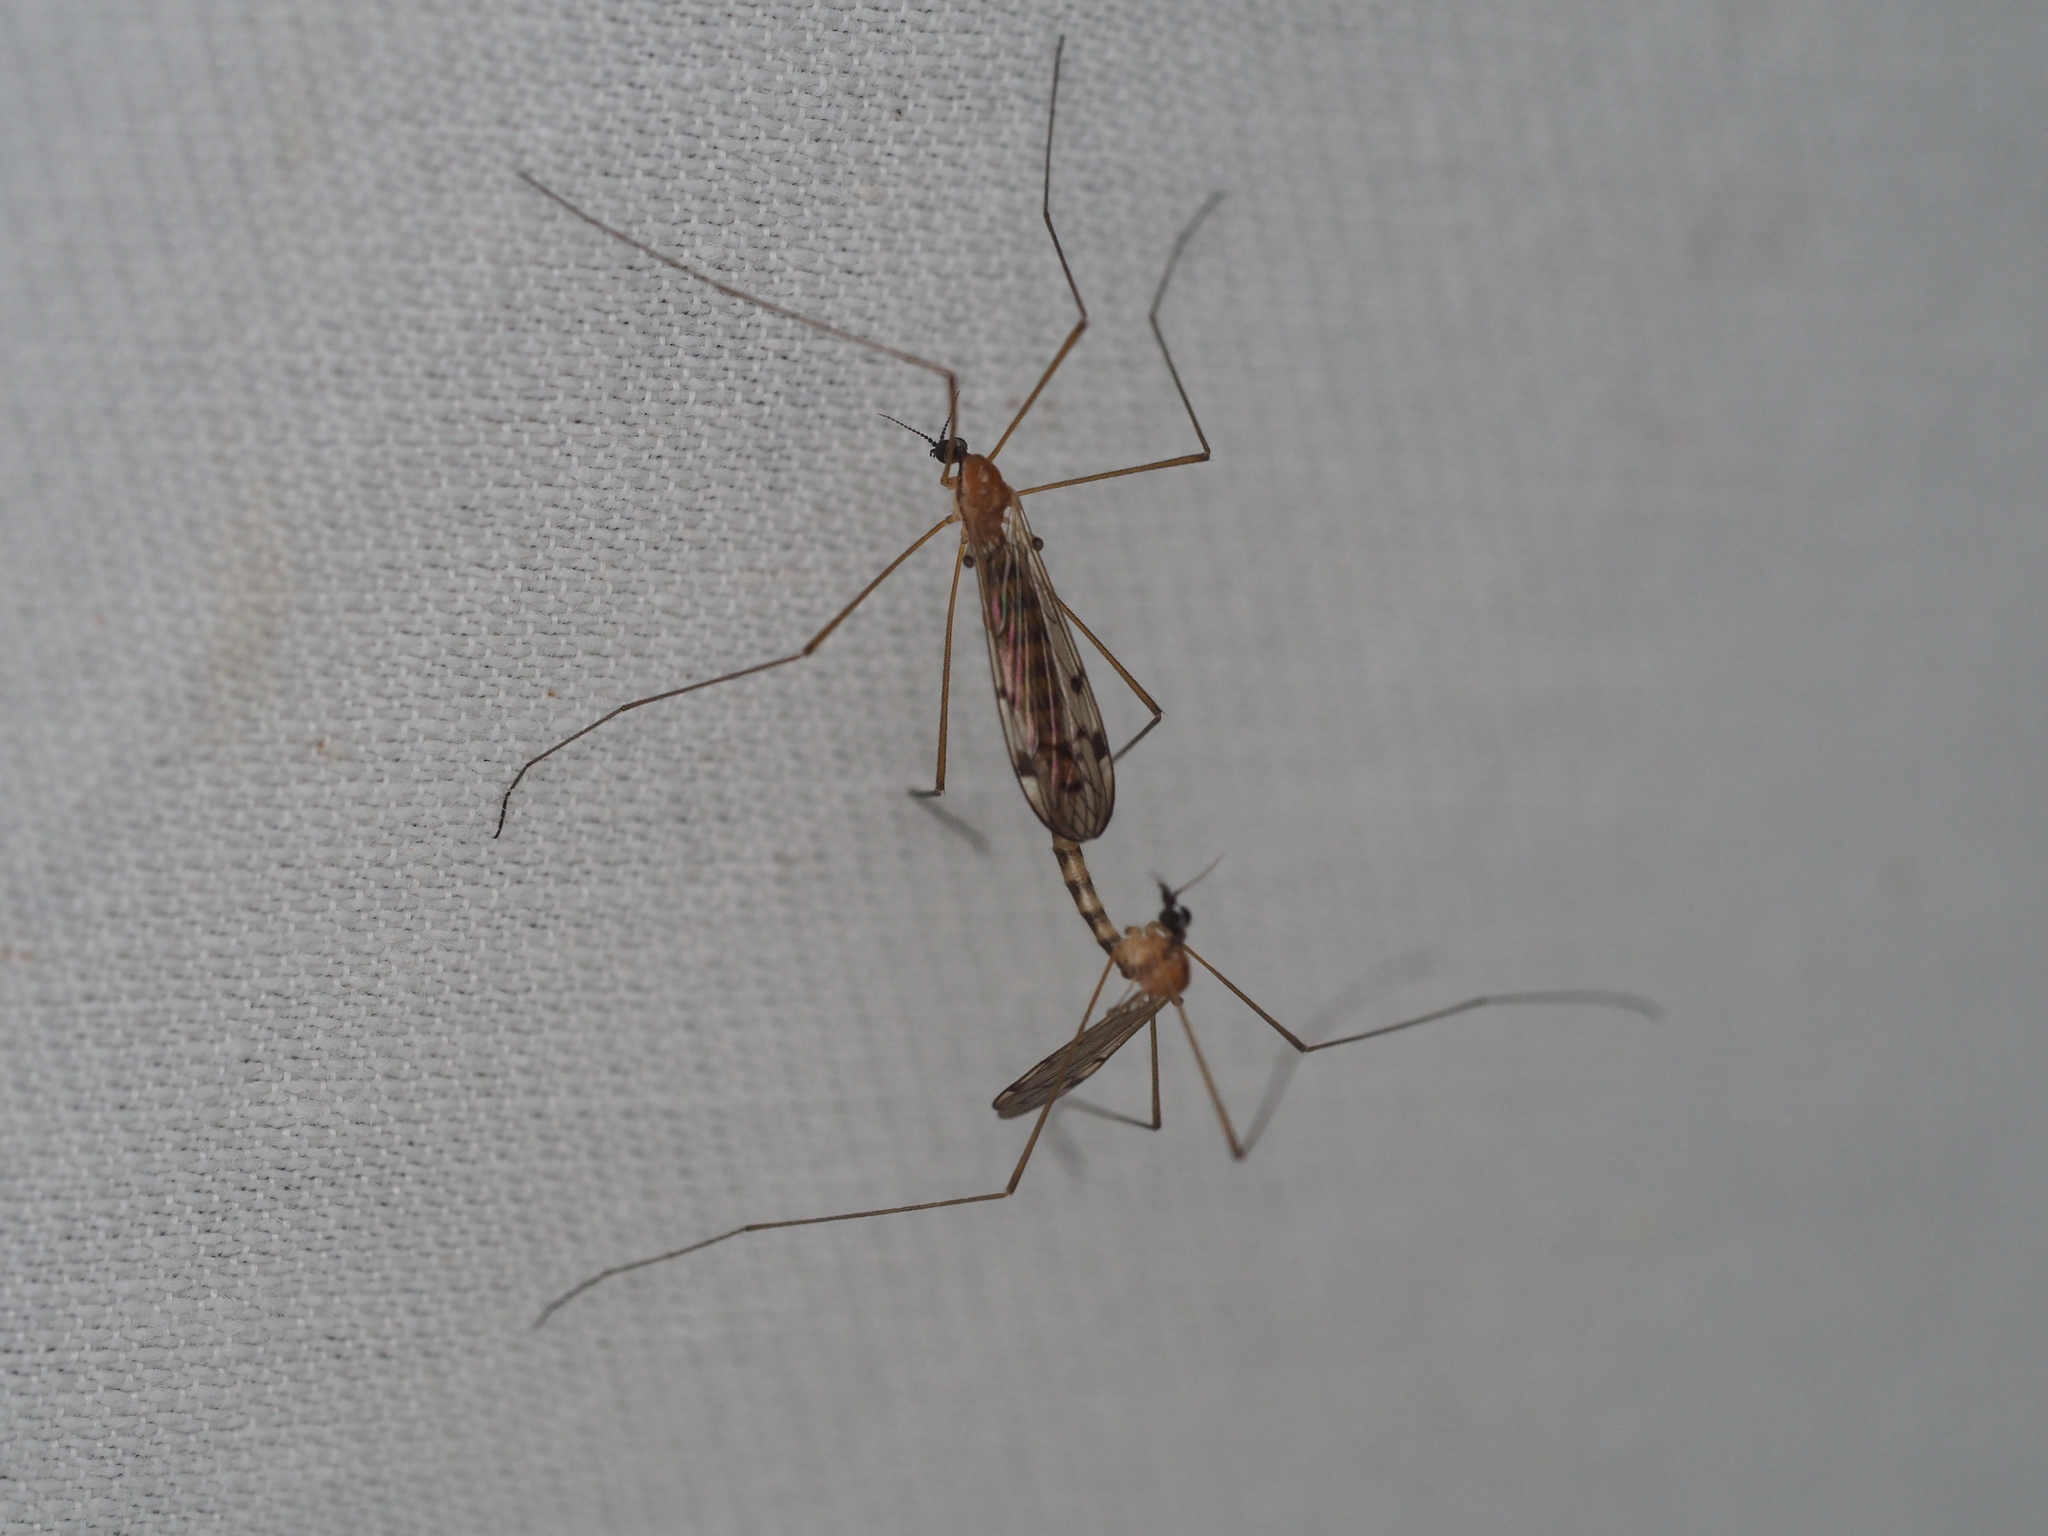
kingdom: Animalia
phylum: Arthropoda
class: Insecta
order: Diptera
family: Limoniidae
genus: Neolimonia
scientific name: Neolimonia dumetorum
